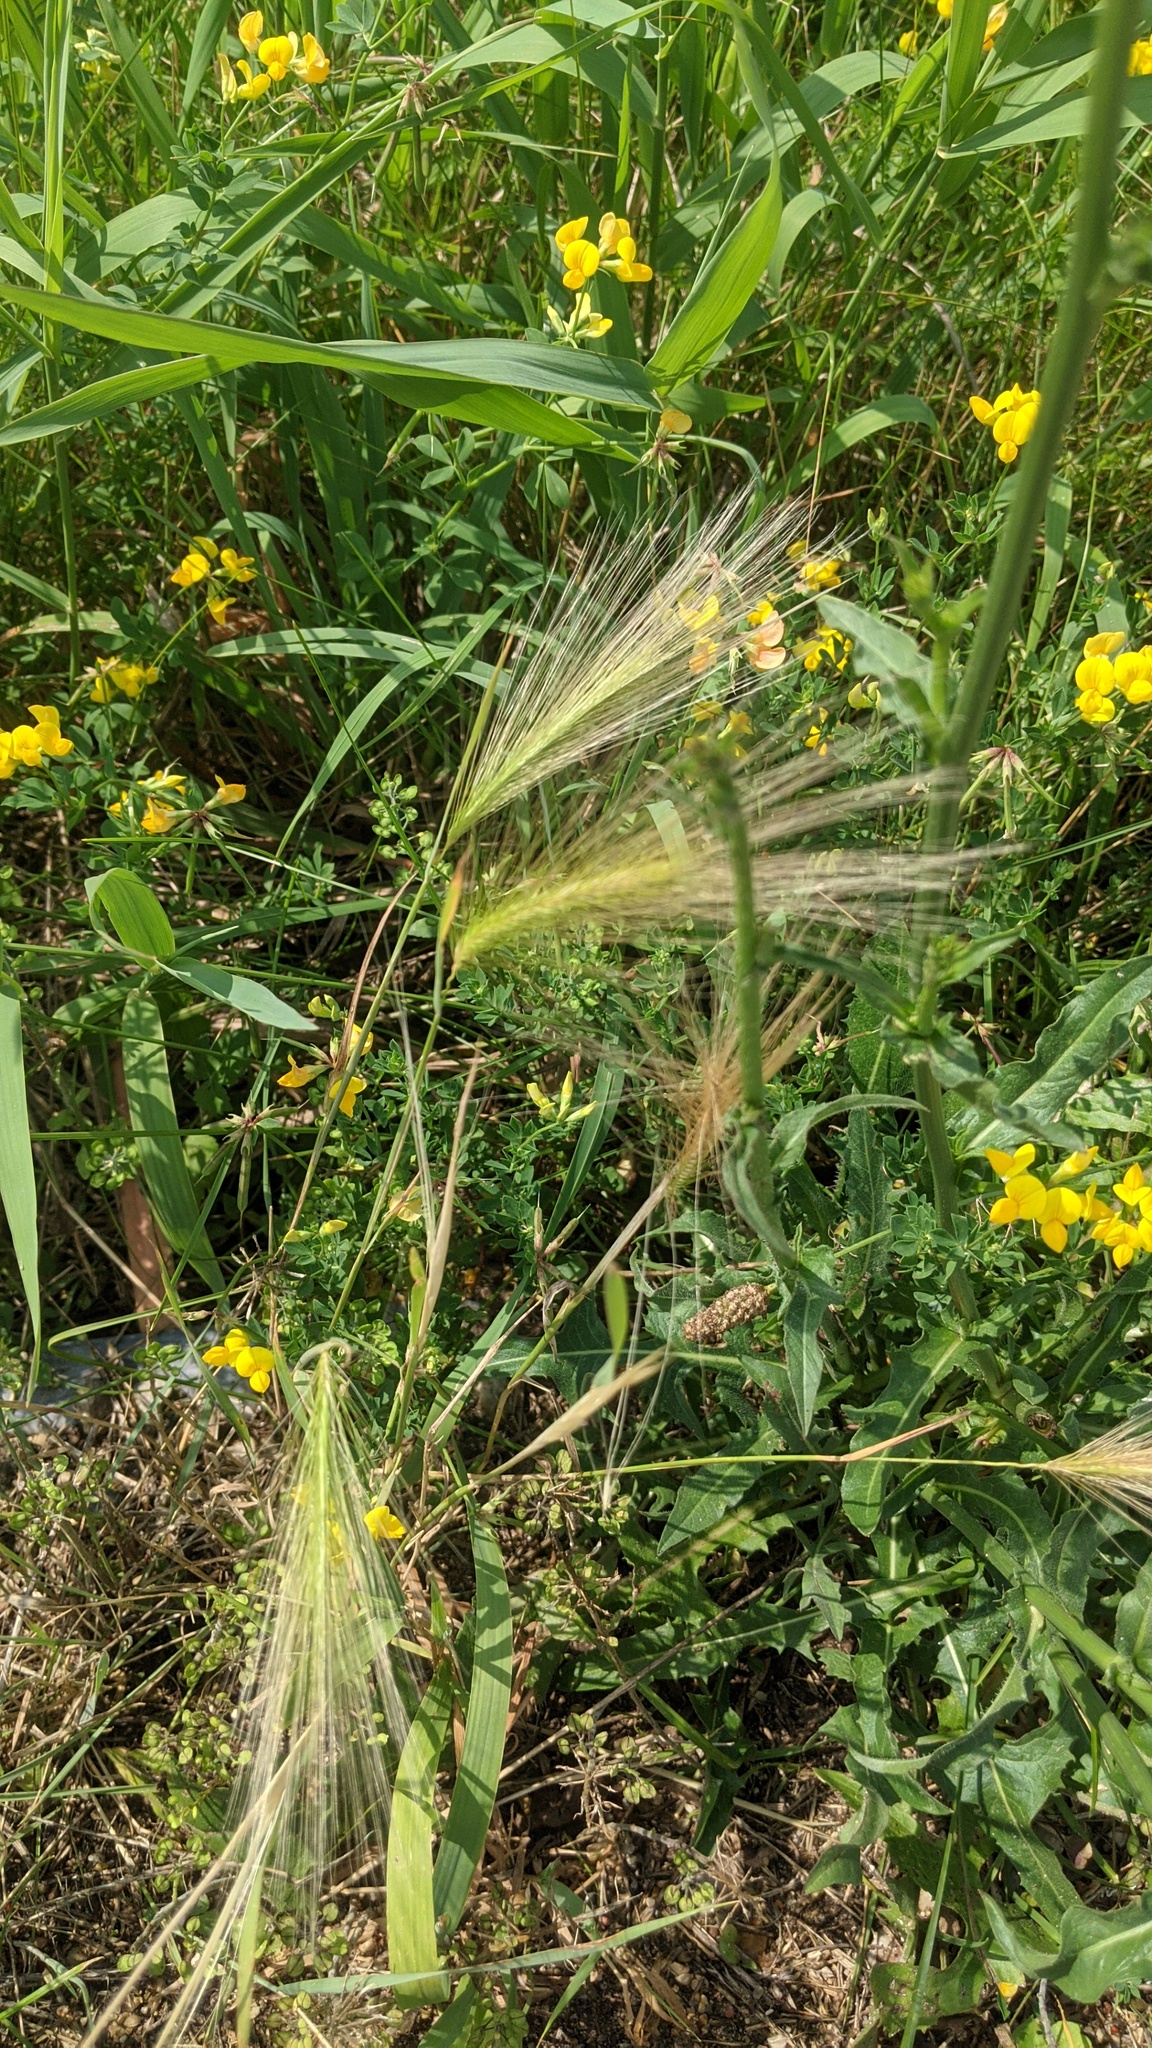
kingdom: Plantae
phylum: Tracheophyta
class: Liliopsida
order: Poales
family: Poaceae
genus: Hordeum
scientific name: Hordeum jubatum
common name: Foxtail barley
